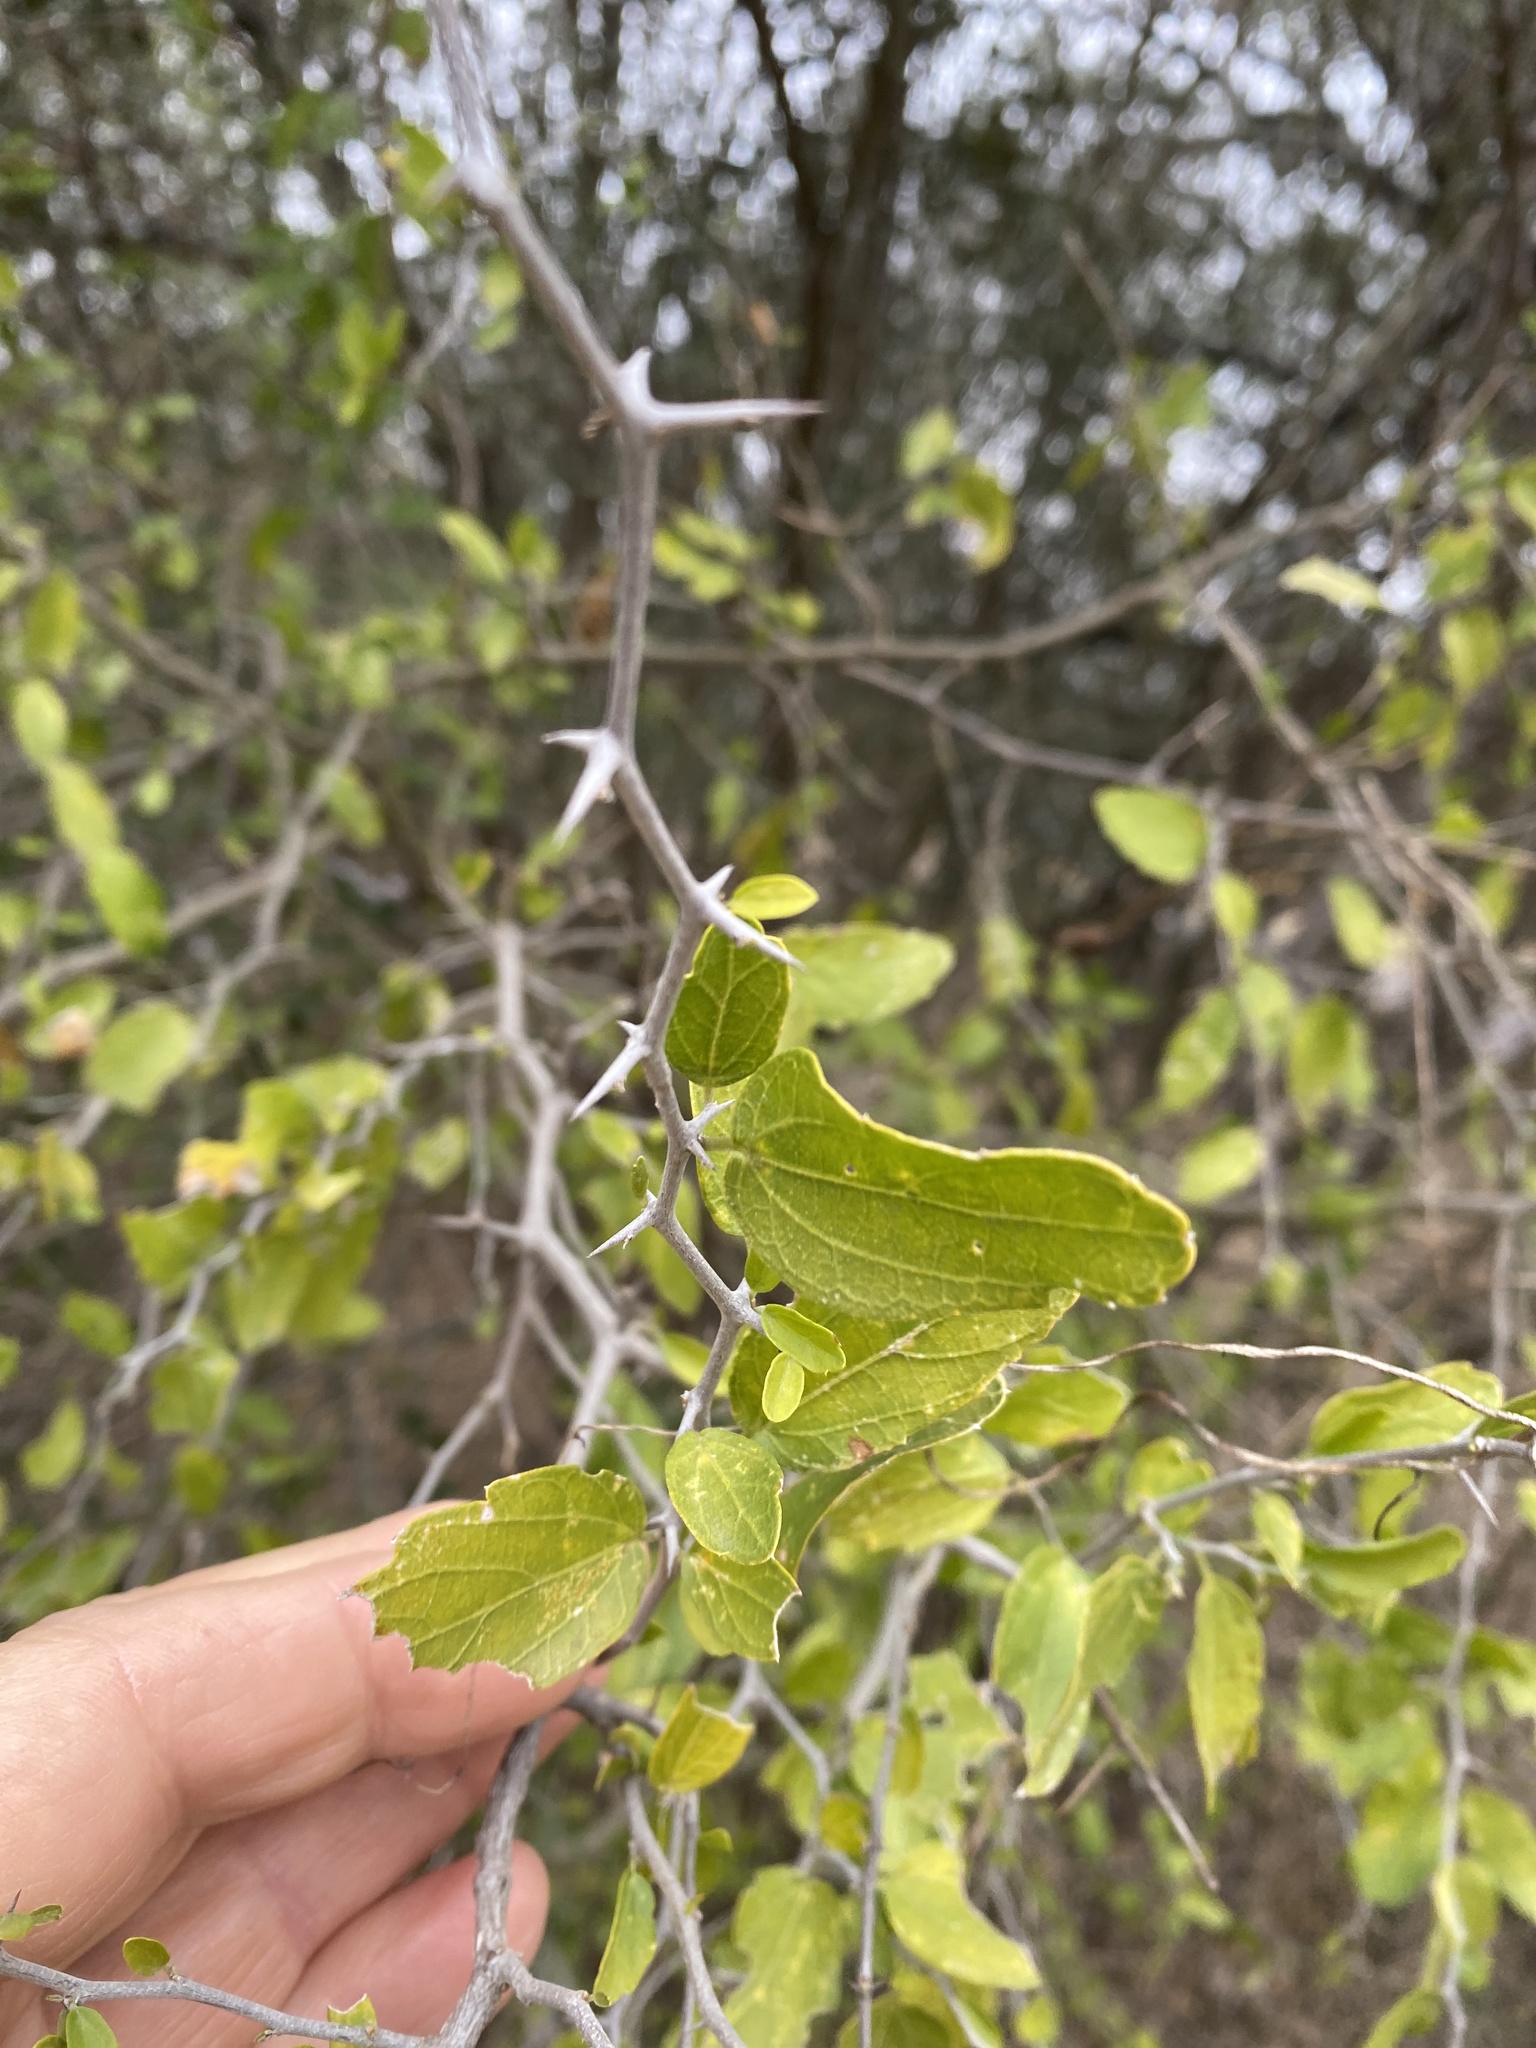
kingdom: Plantae
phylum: Tracheophyta
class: Magnoliopsida
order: Rosales
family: Cannabaceae
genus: Celtis
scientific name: Celtis pallida
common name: Desert hackberry
